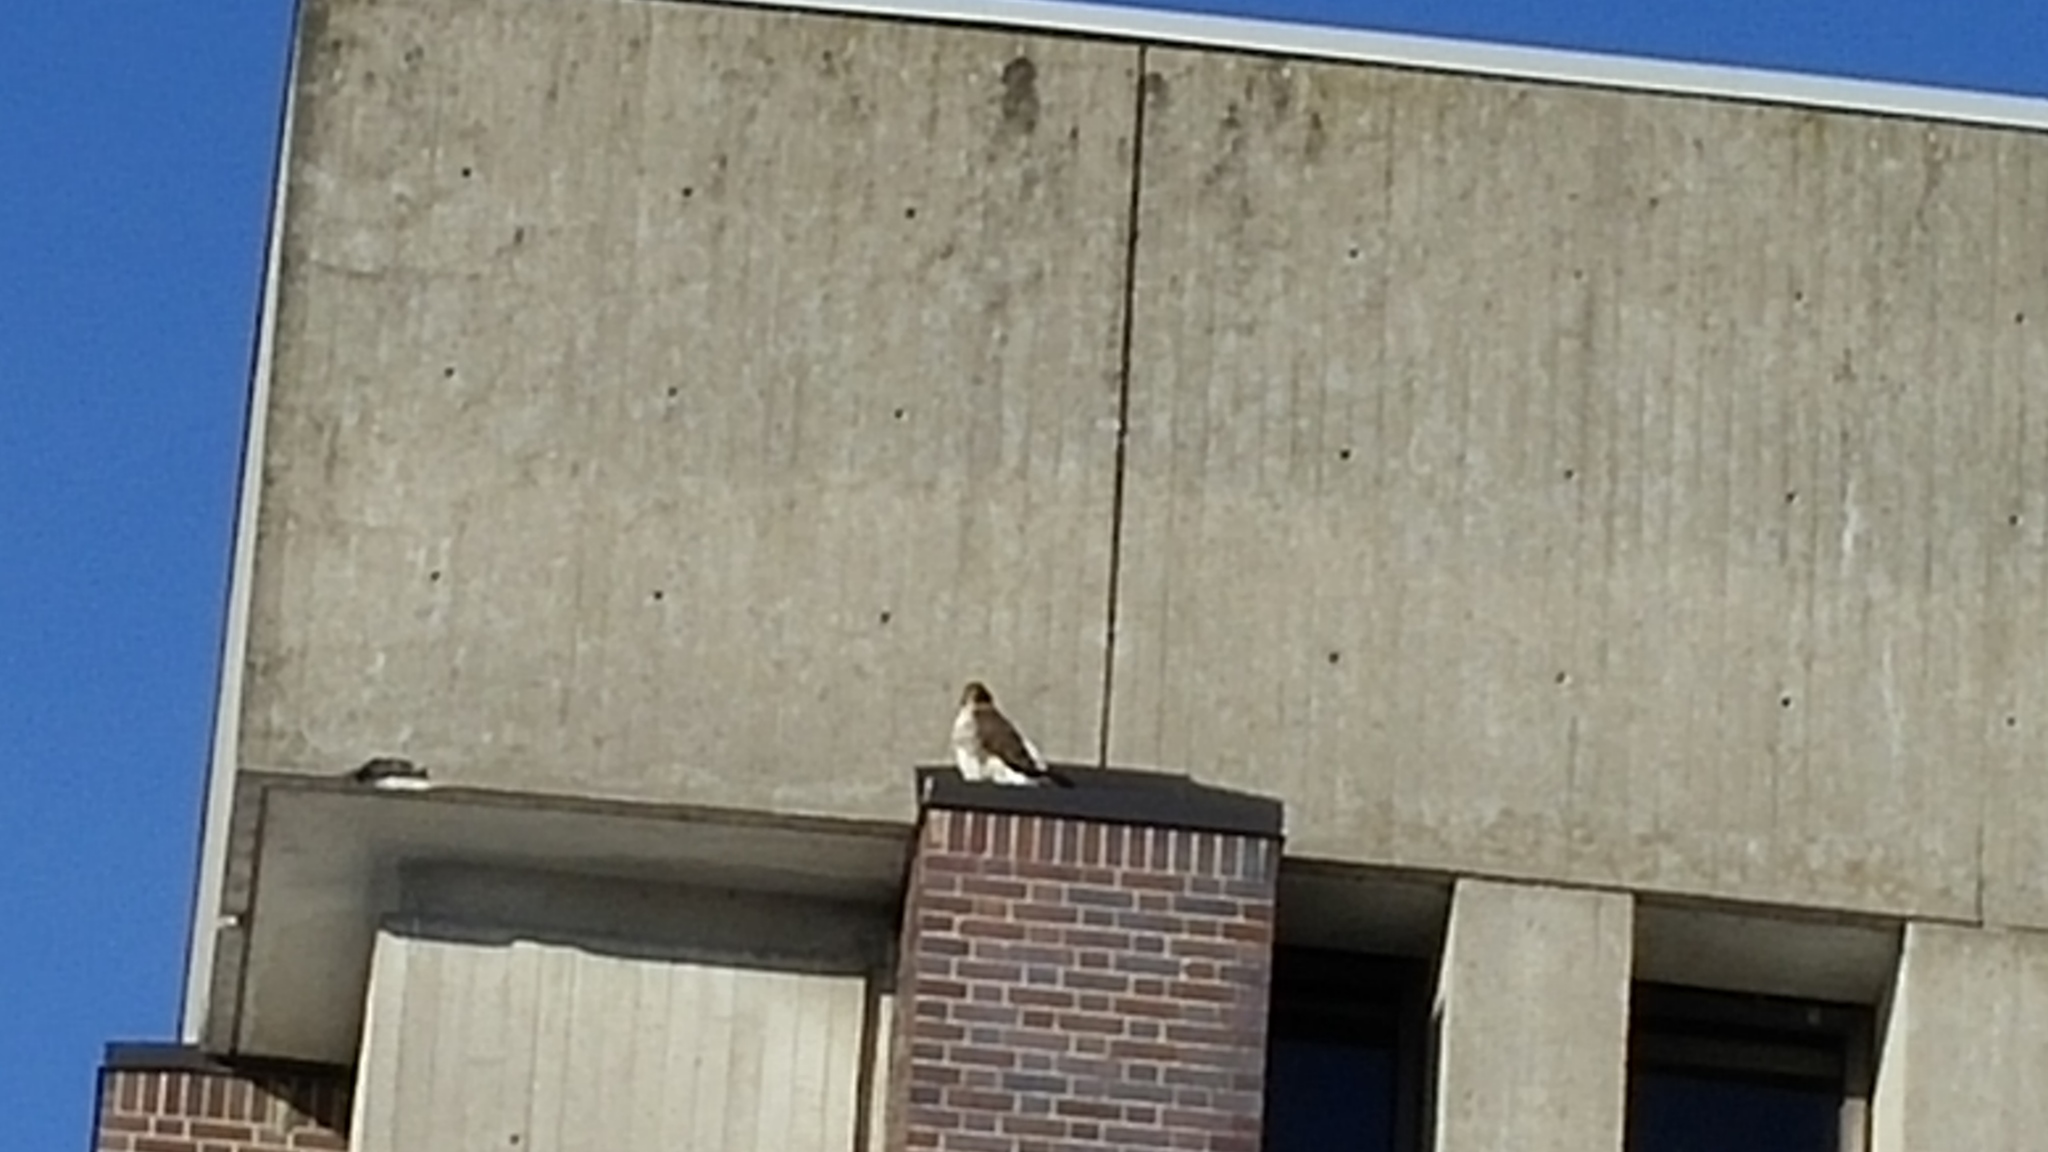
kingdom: Animalia
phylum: Chordata
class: Aves
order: Accipitriformes
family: Accipitridae
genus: Buteo
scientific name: Buteo jamaicensis
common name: Red-tailed hawk
